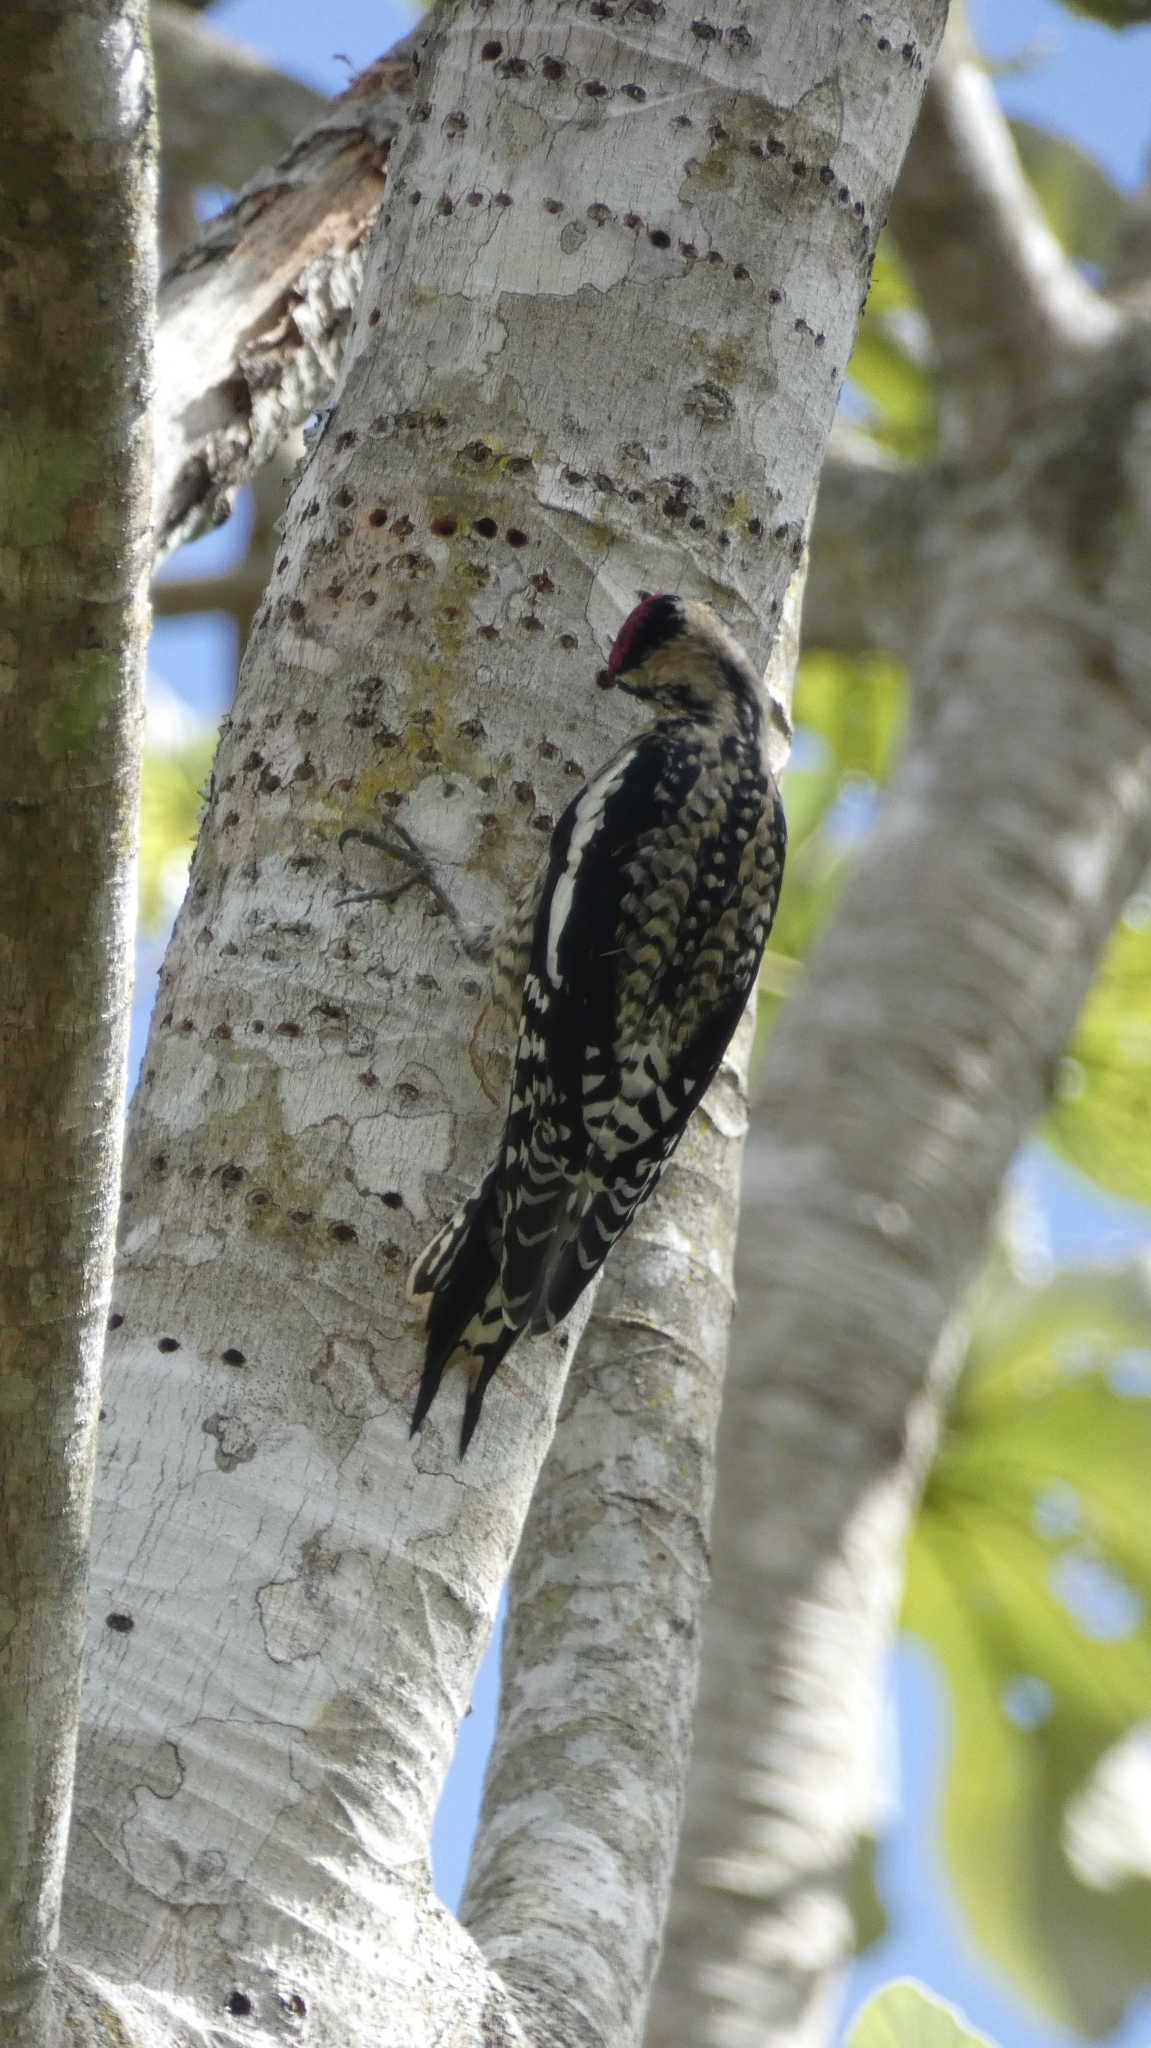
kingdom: Animalia
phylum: Chordata
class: Aves
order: Piciformes
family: Picidae
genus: Sphyrapicus
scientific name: Sphyrapicus varius
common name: Yellow-bellied sapsucker
